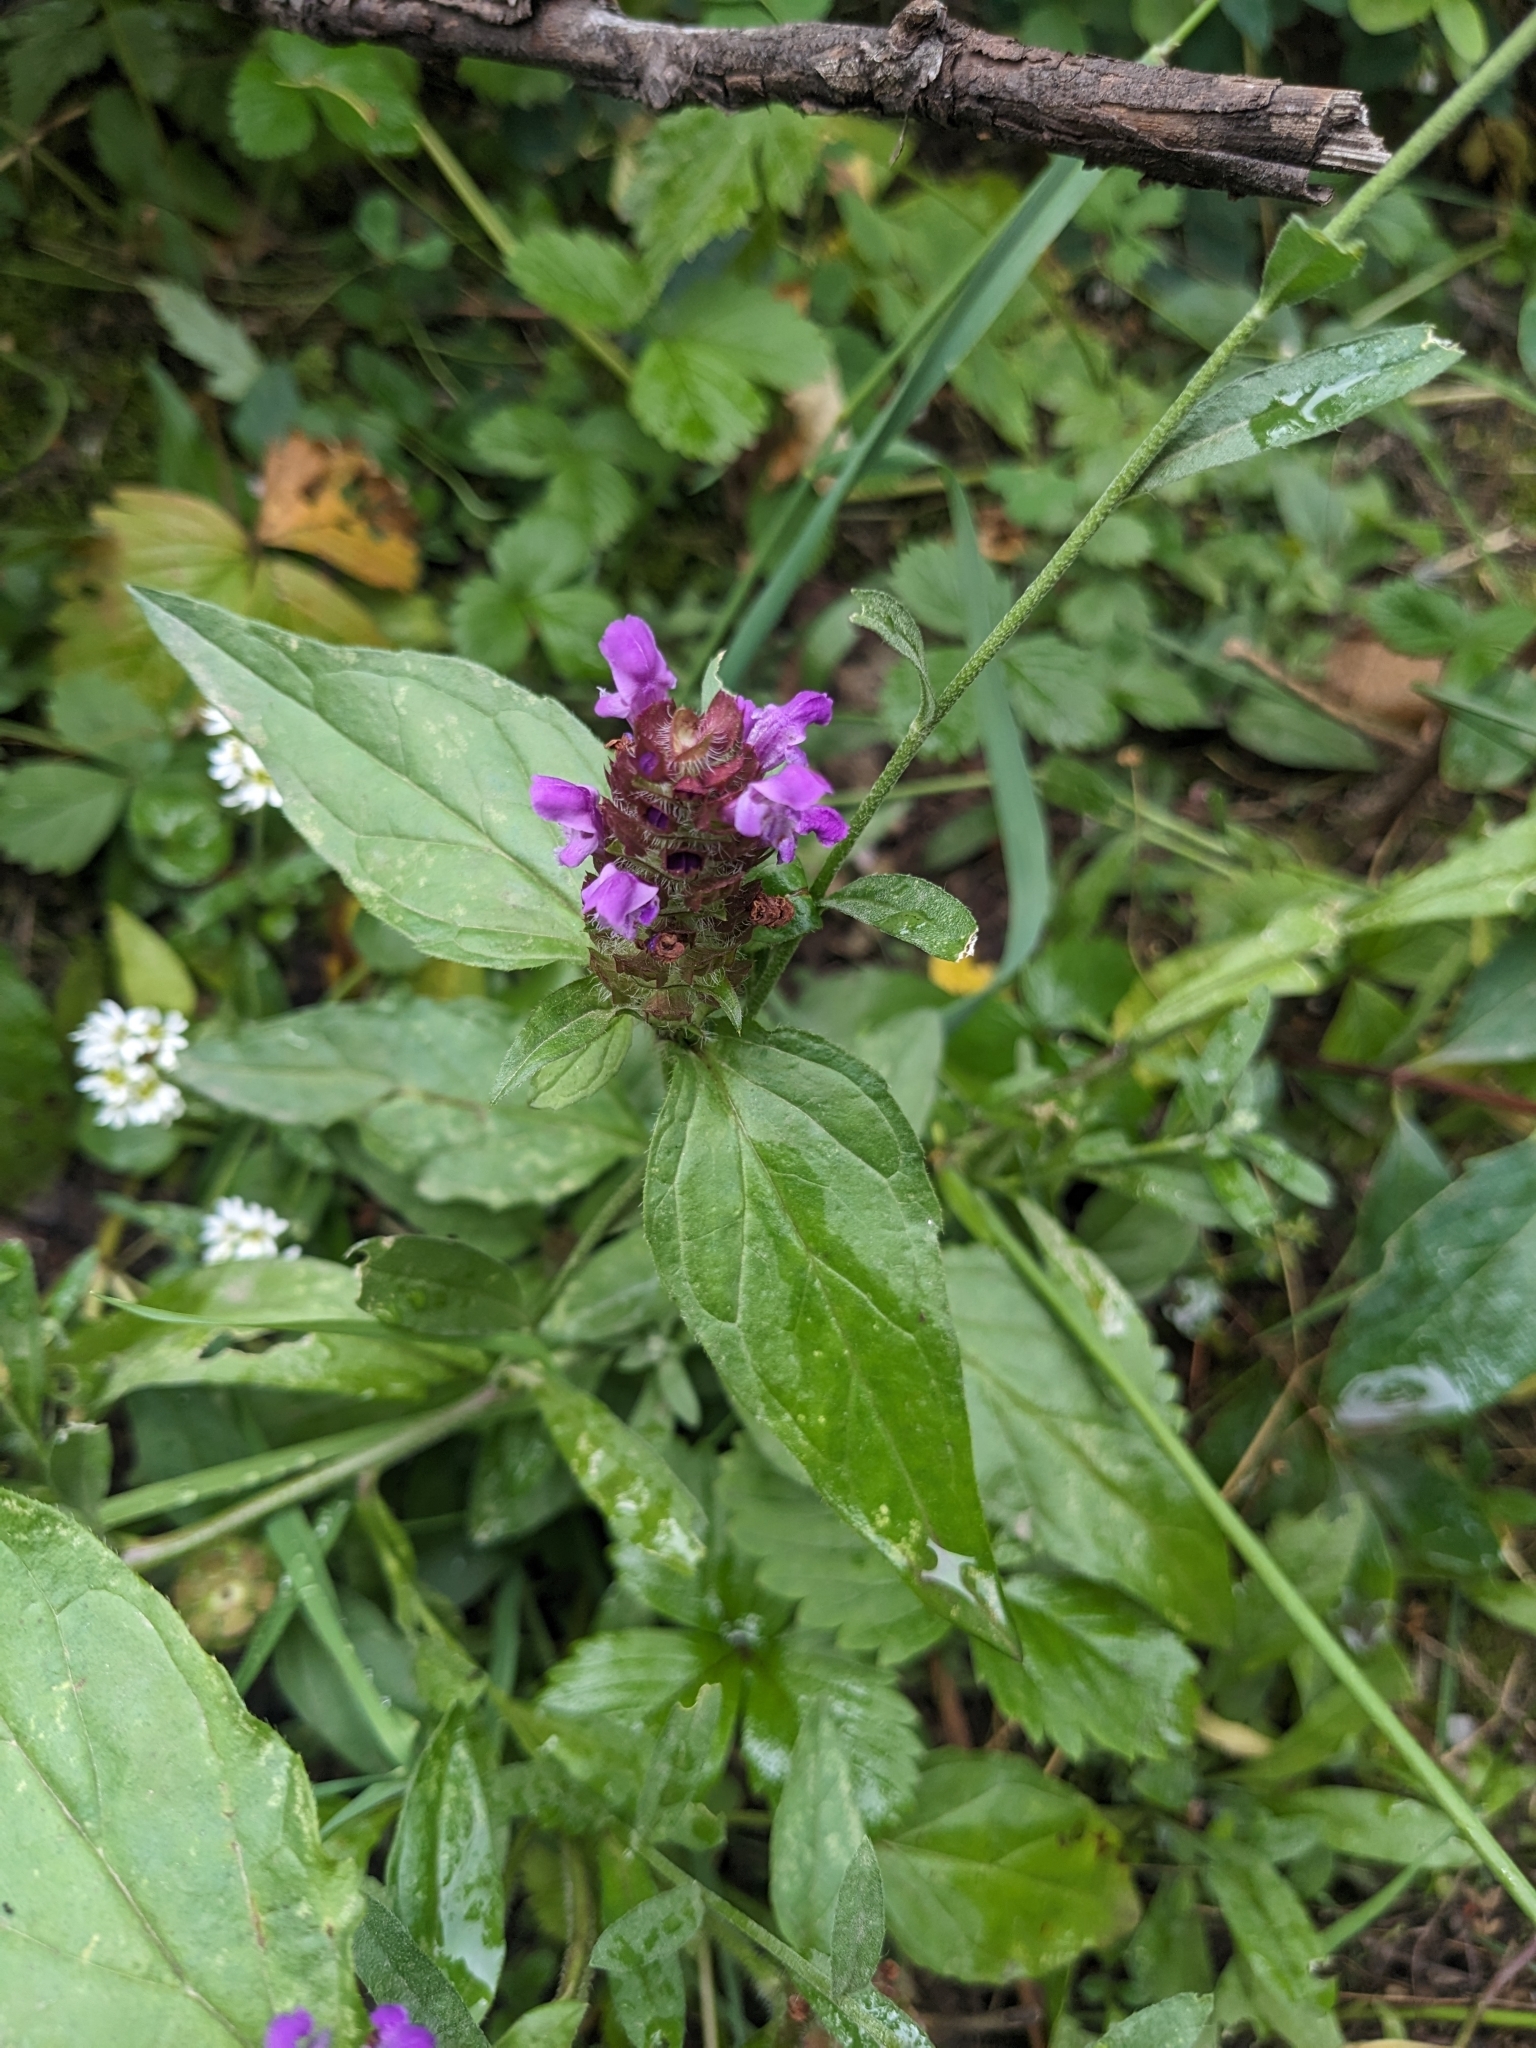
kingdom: Plantae
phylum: Tracheophyta
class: Magnoliopsida
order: Lamiales
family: Lamiaceae
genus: Prunella
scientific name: Prunella vulgaris
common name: Heal-all
